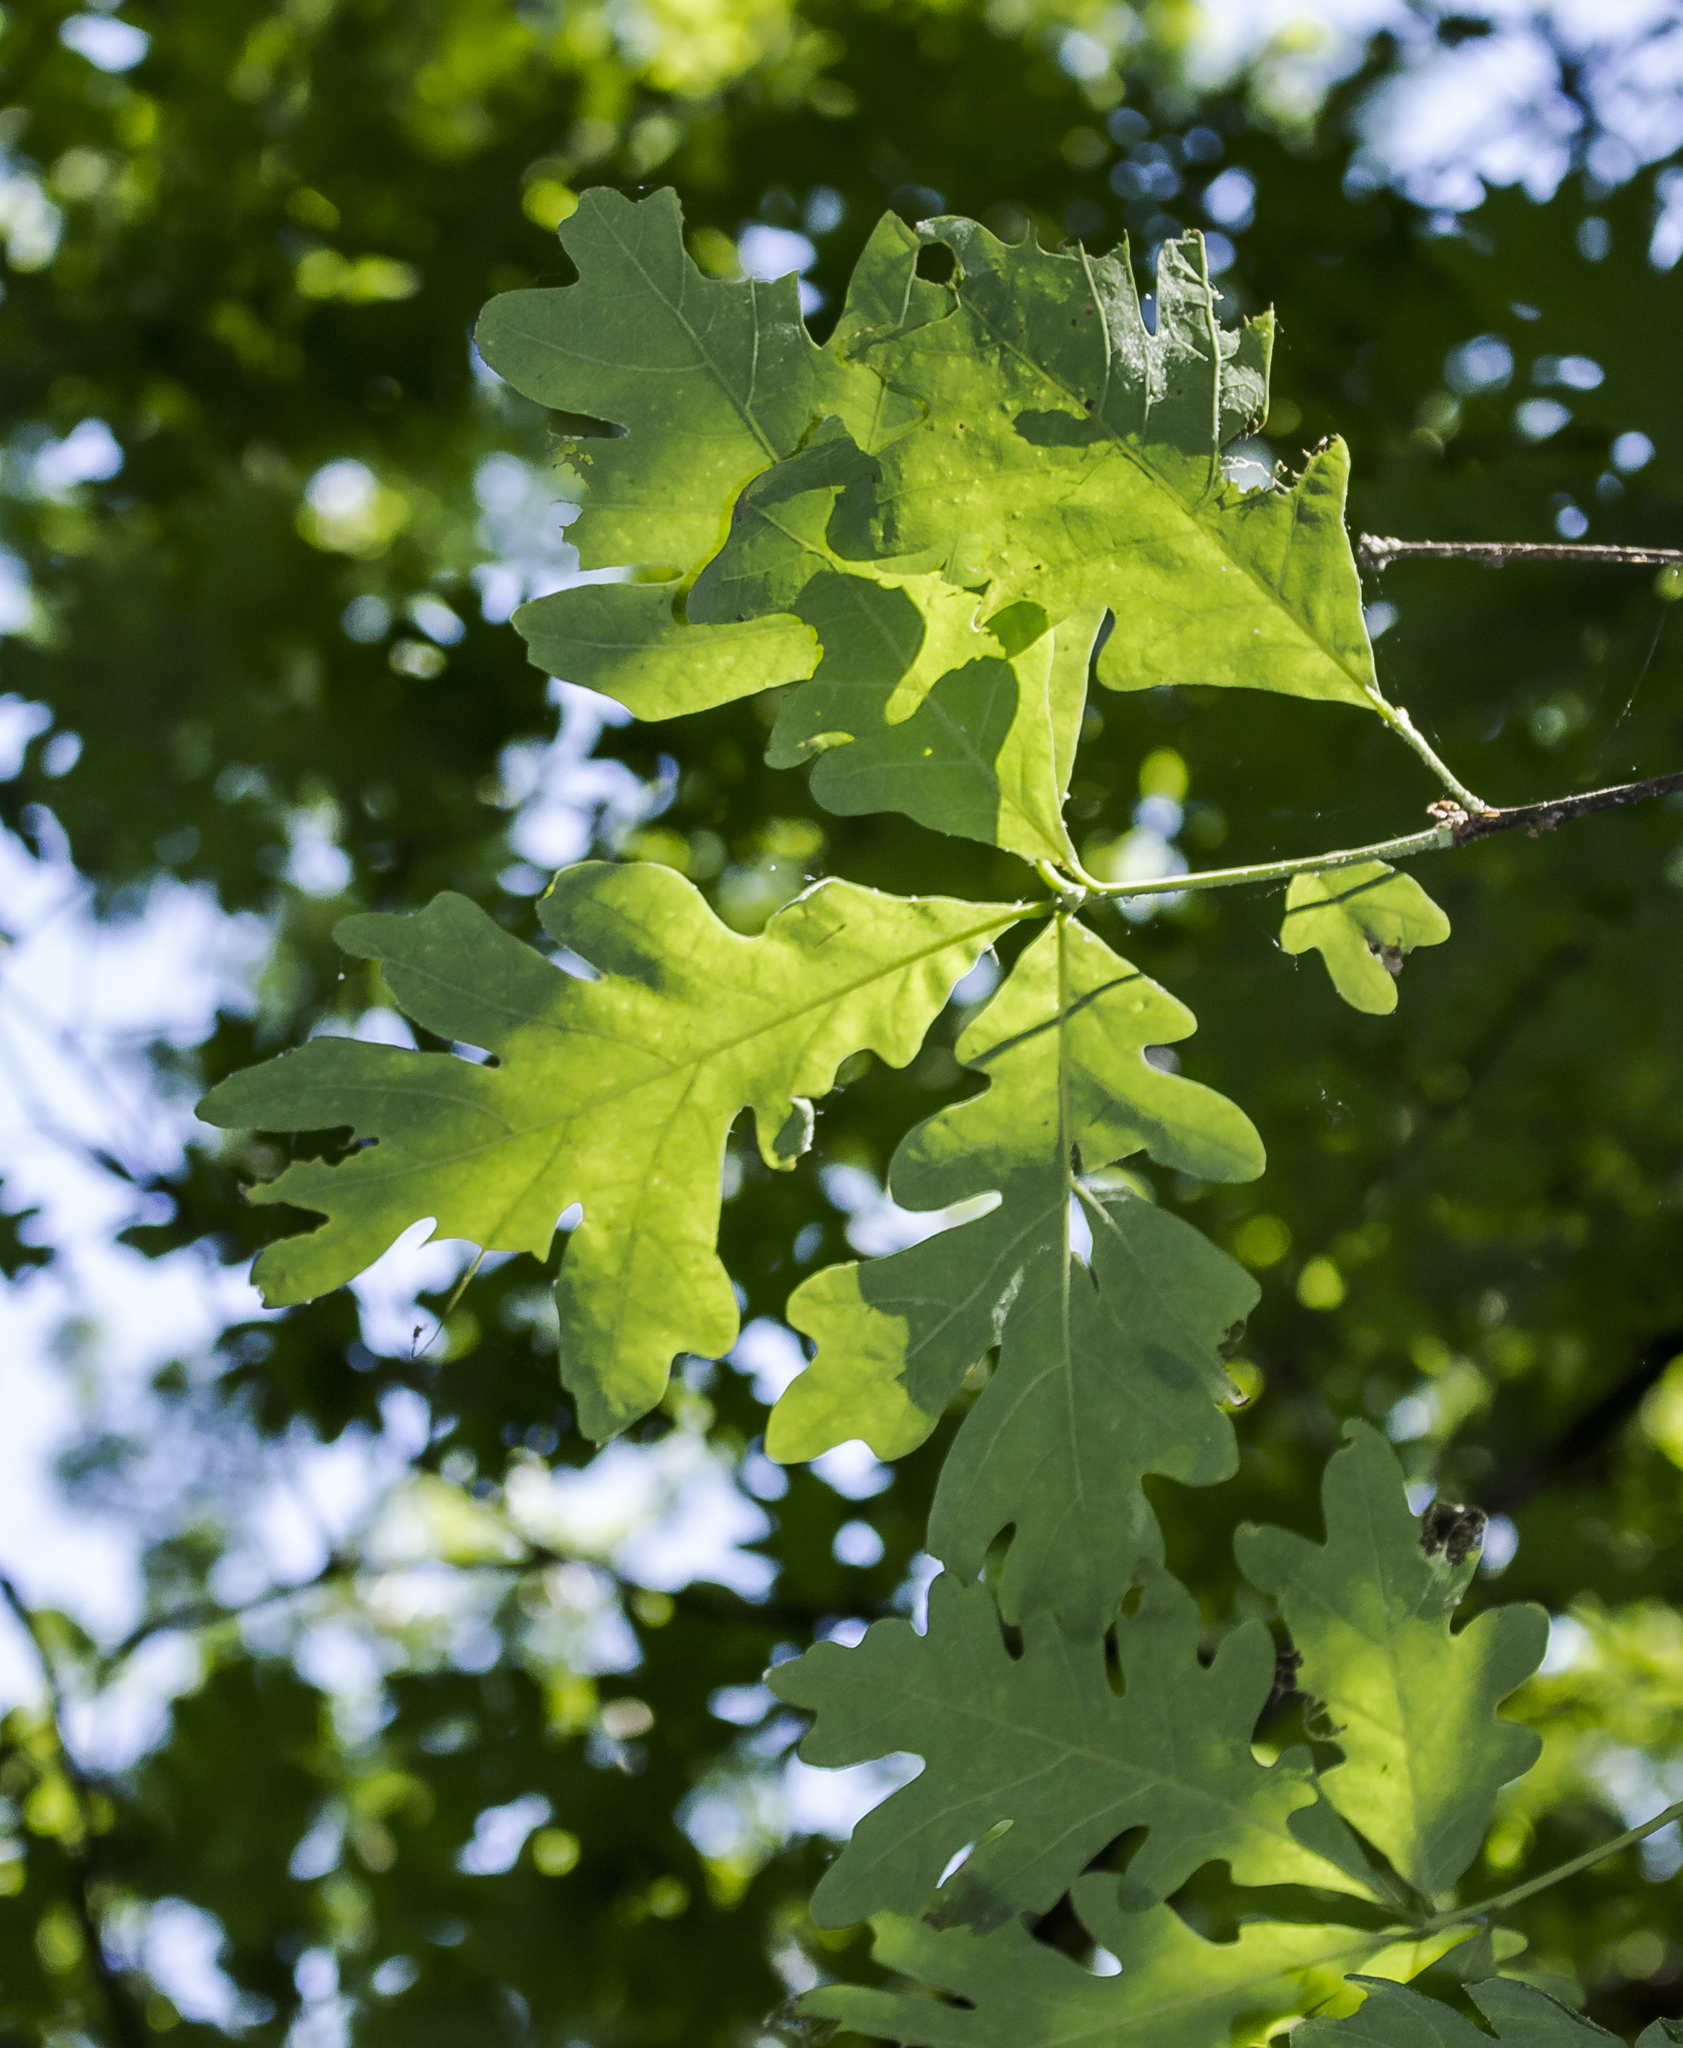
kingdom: Plantae
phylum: Tracheophyta
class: Magnoliopsida
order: Fagales
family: Fagaceae
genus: Quercus
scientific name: Quercus alba
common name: White oak
